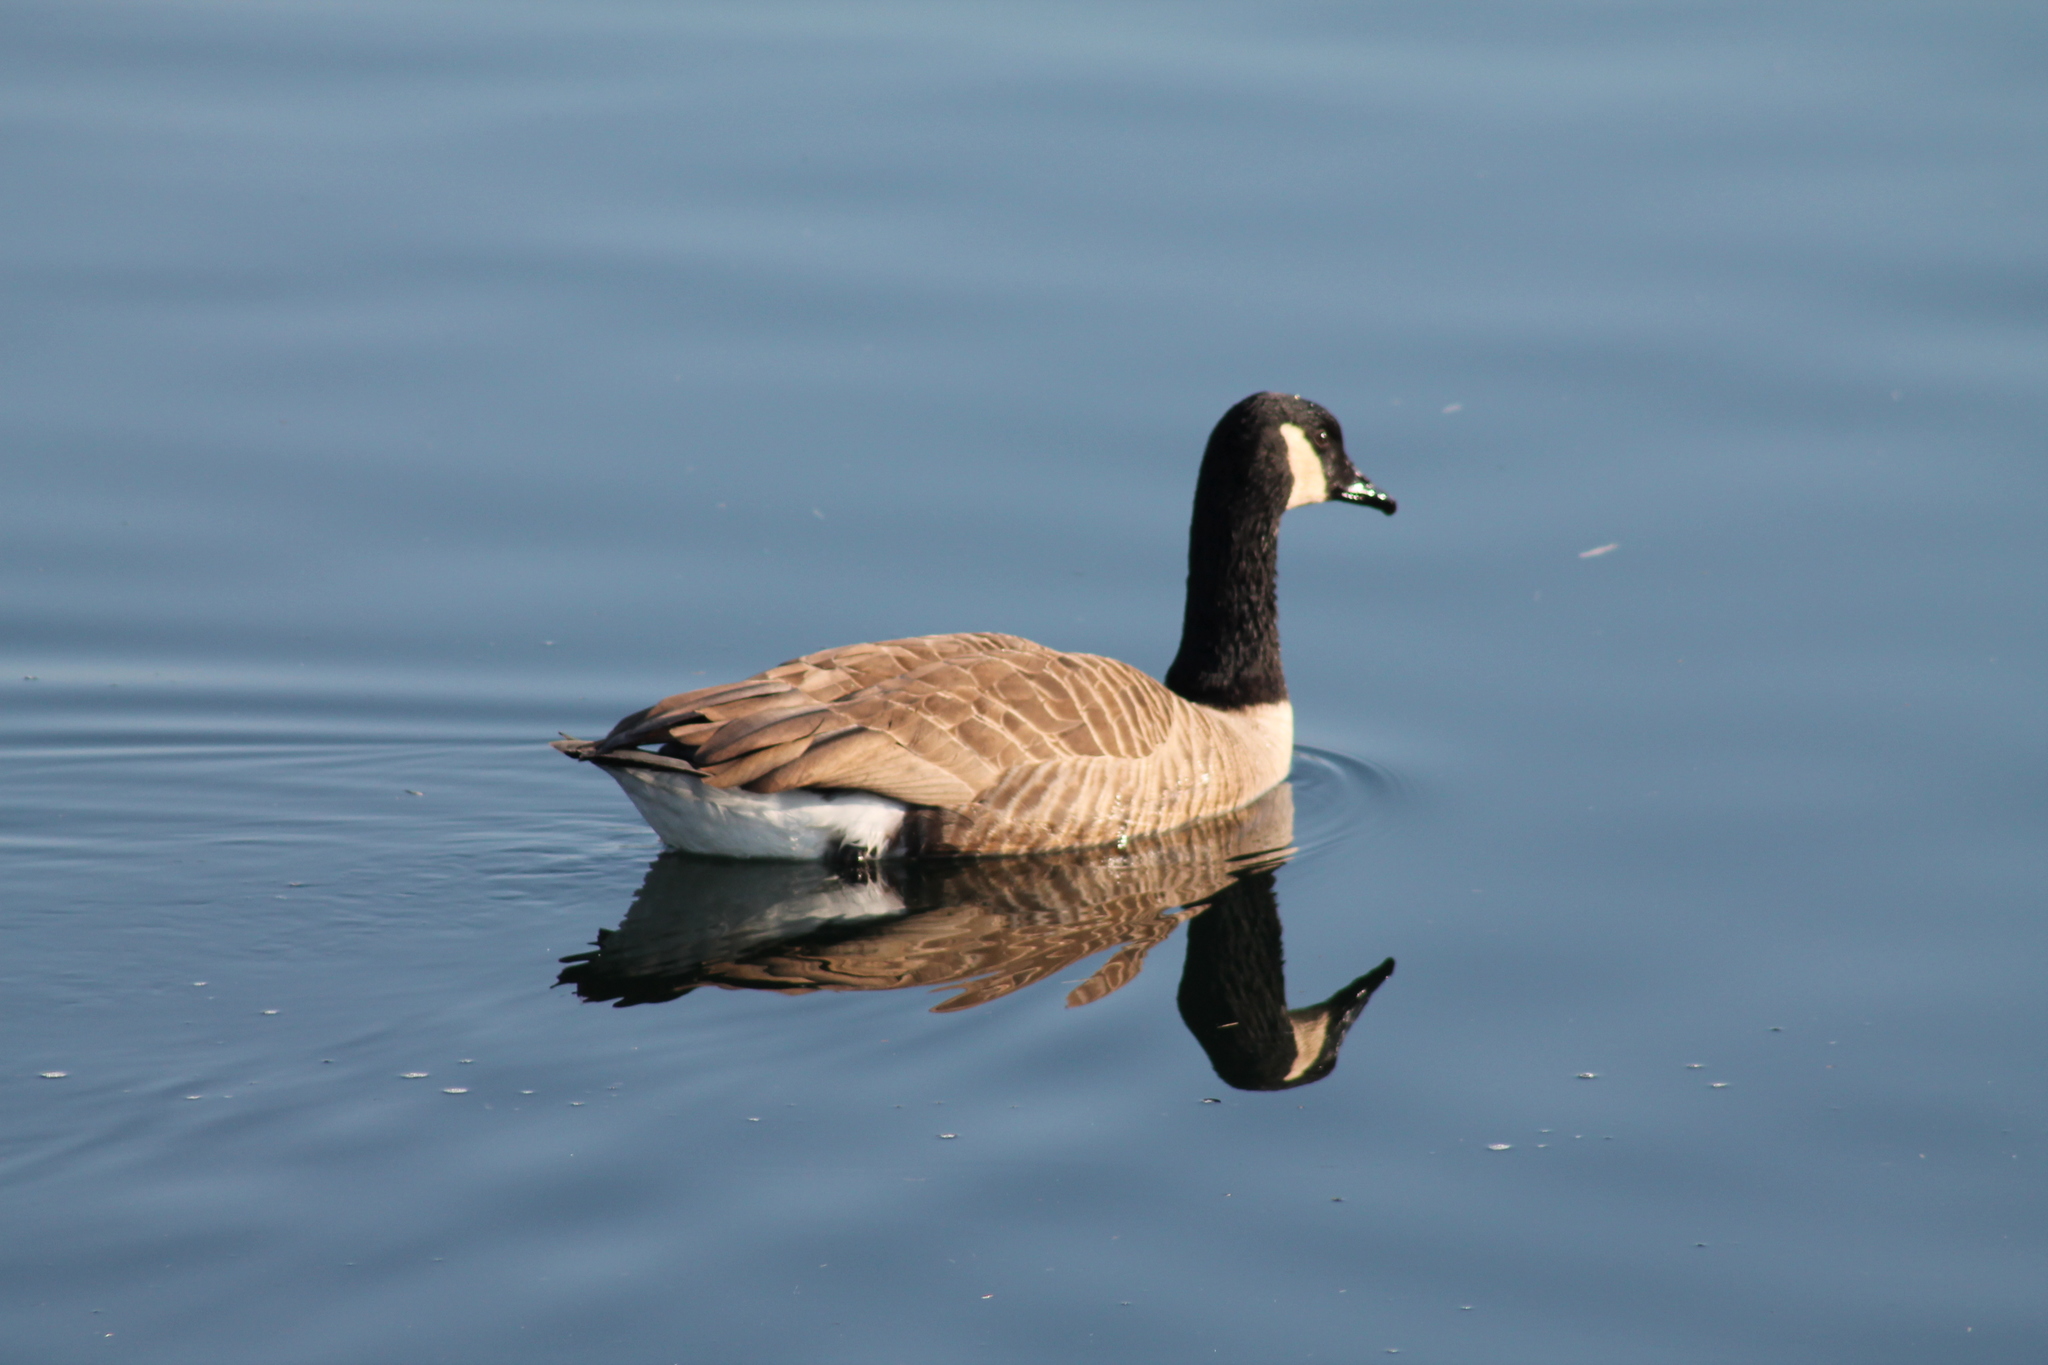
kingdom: Animalia
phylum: Chordata
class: Aves
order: Anseriformes
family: Anatidae
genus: Branta
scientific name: Branta canadensis
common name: Canada goose
